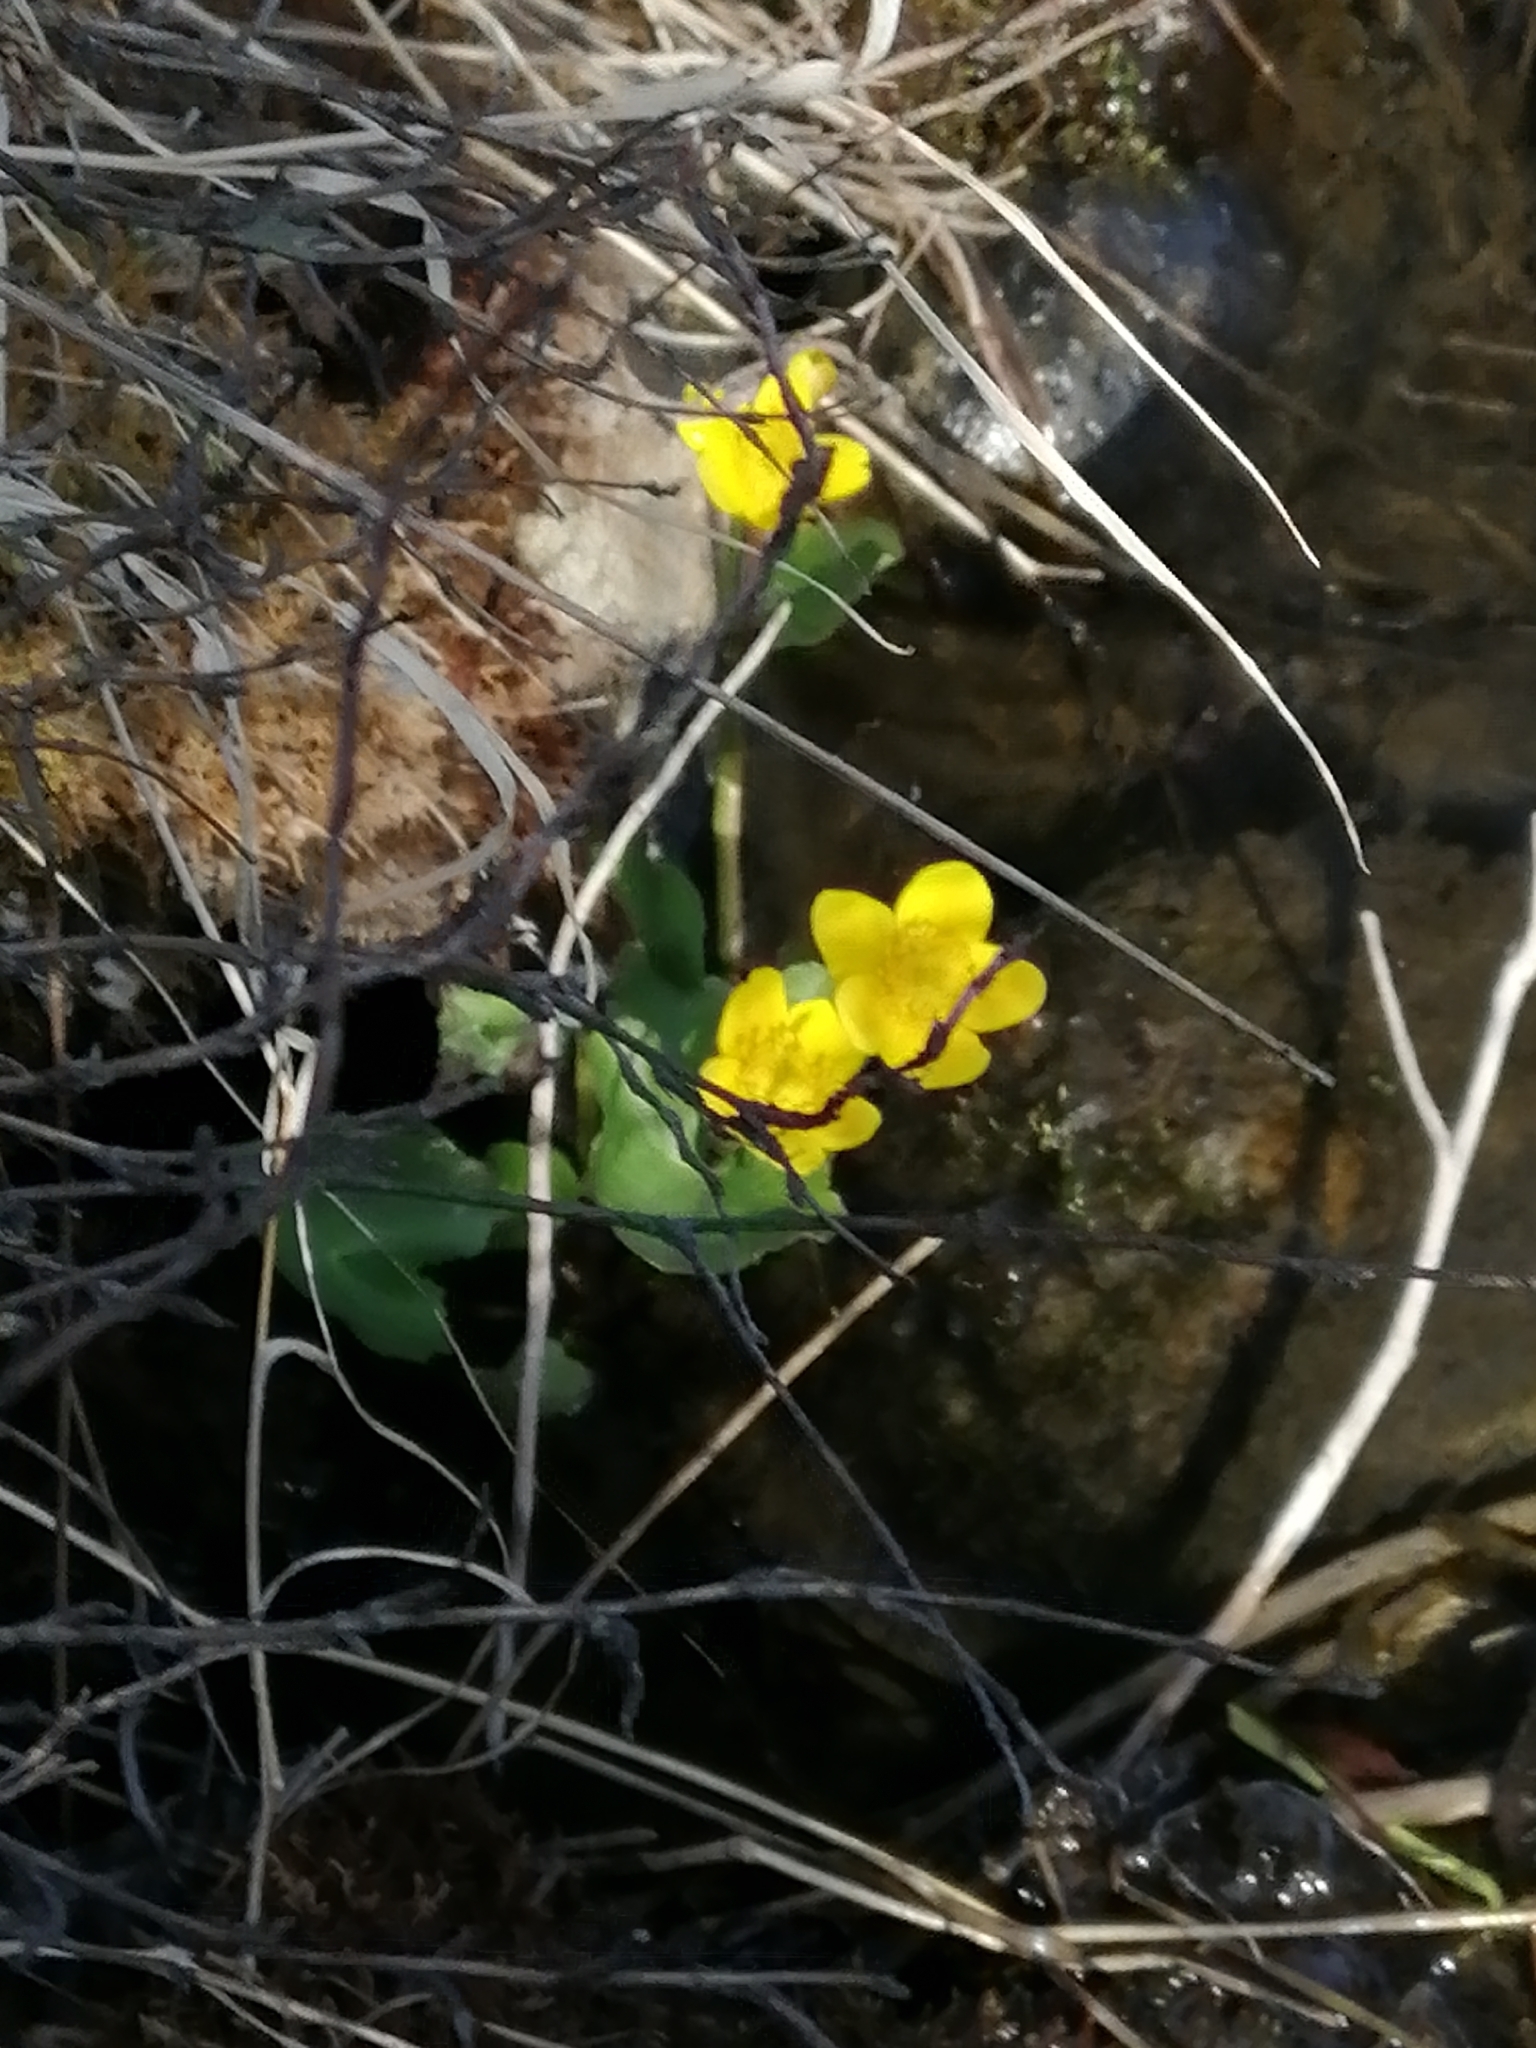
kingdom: Plantae
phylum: Tracheophyta
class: Magnoliopsida
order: Ranunculales
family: Ranunculaceae
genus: Caltha
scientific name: Caltha palustris
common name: Marsh marigold
